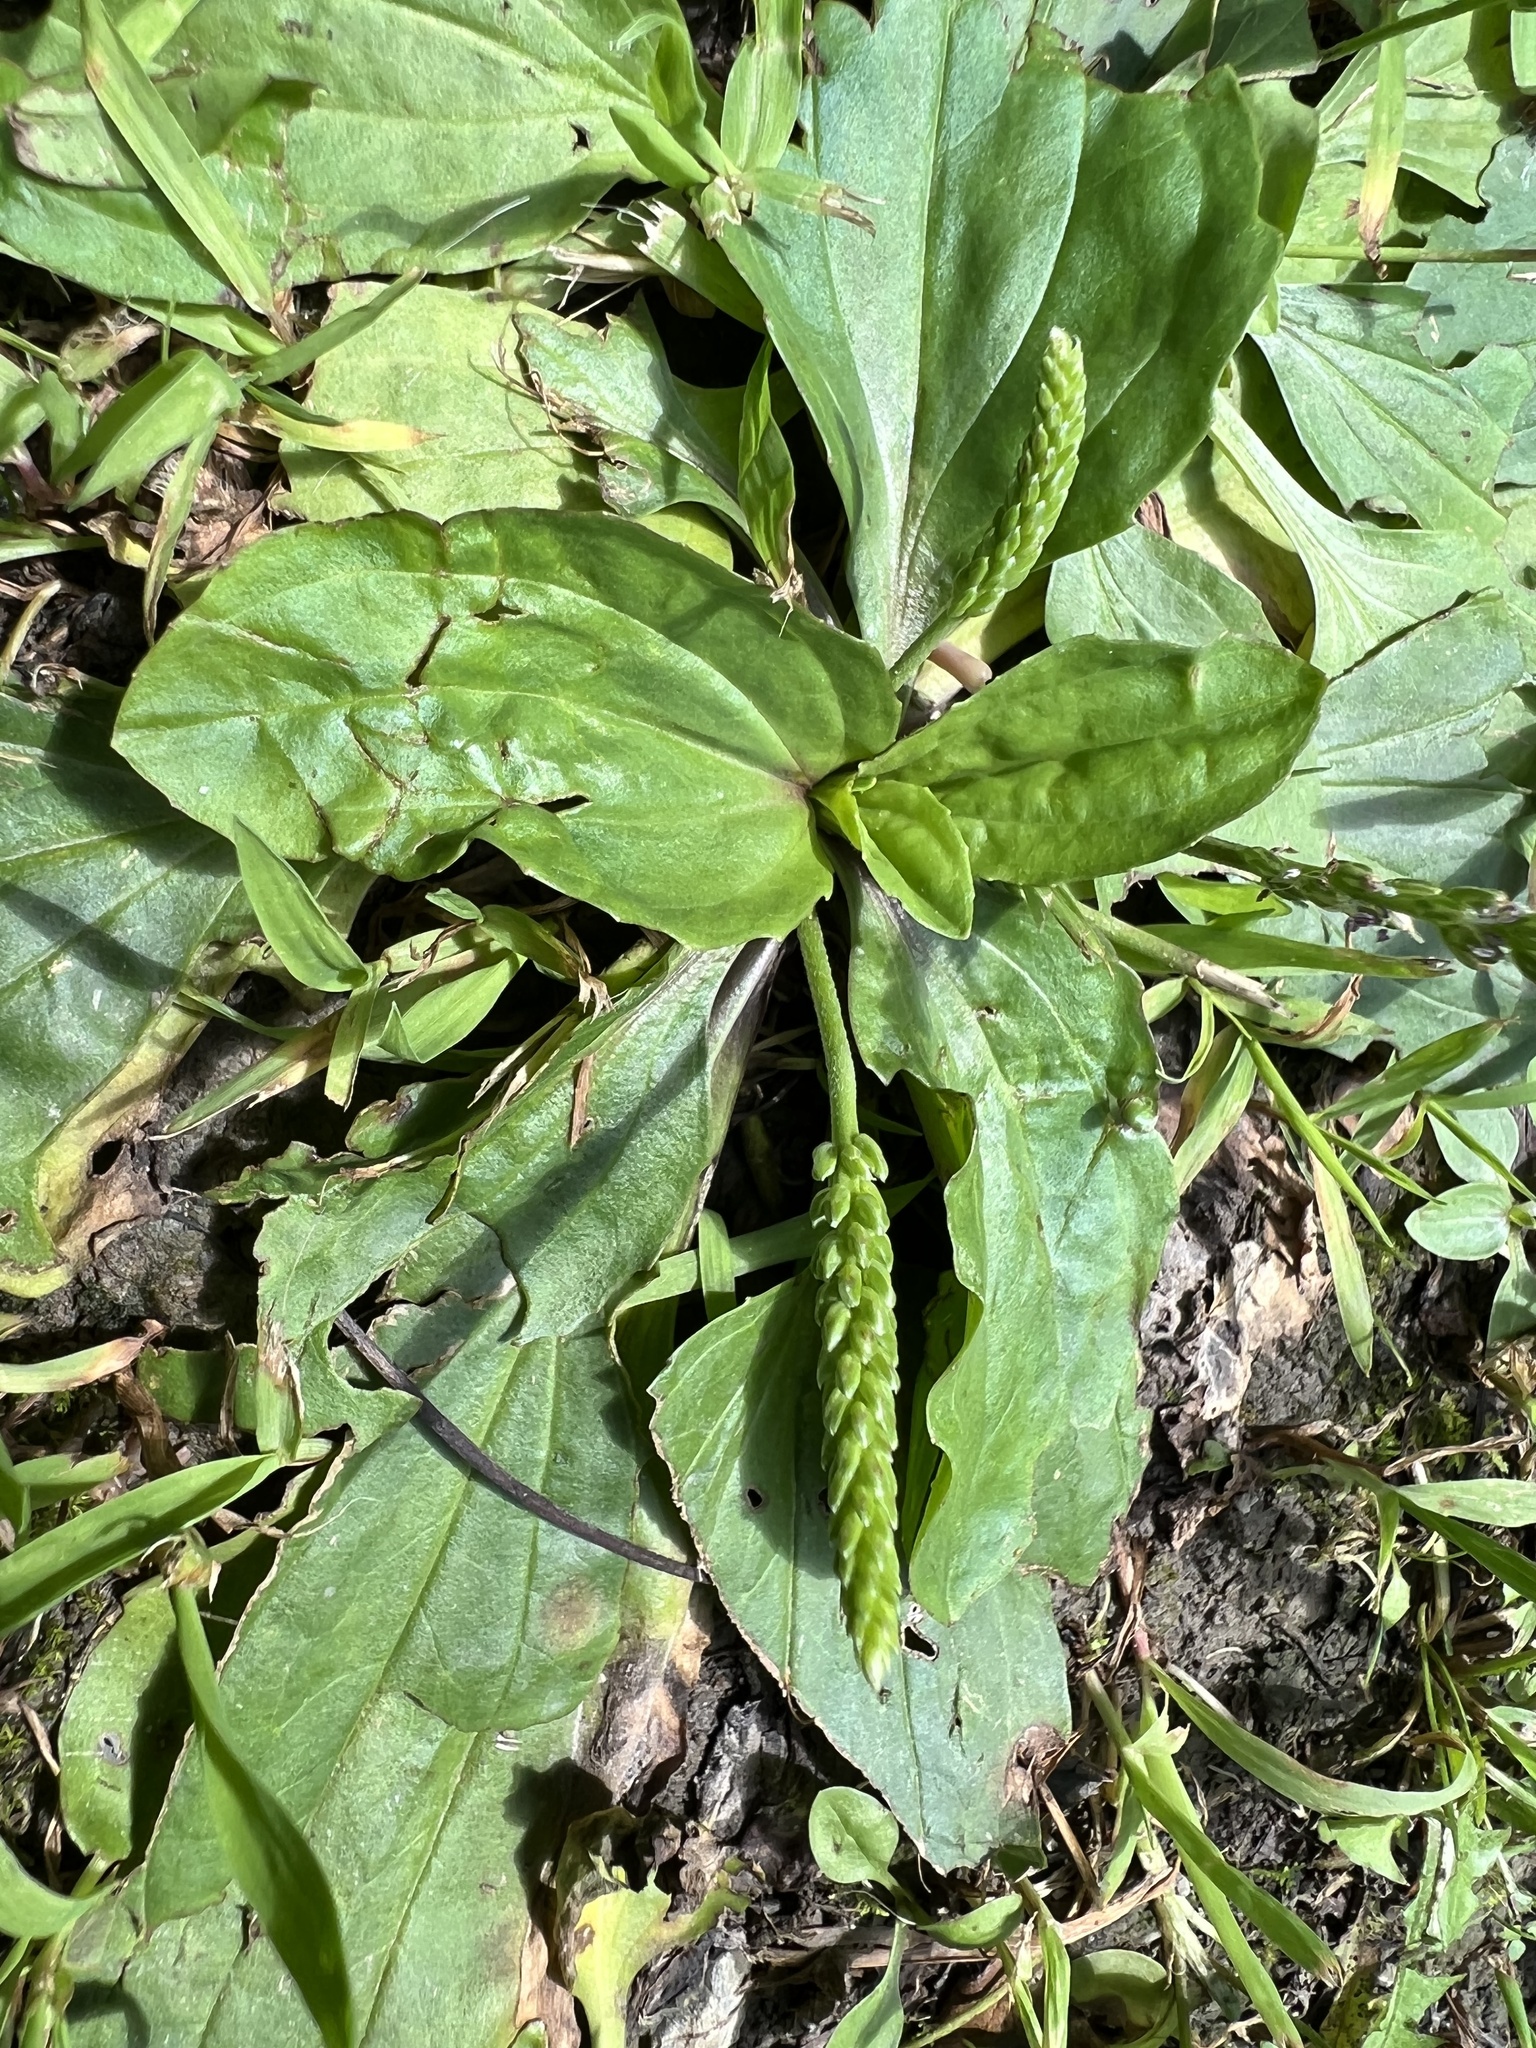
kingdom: Plantae
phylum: Tracheophyta
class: Magnoliopsida
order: Lamiales
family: Plantaginaceae
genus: Plantago
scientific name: Plantago rugelii
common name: American plantain
